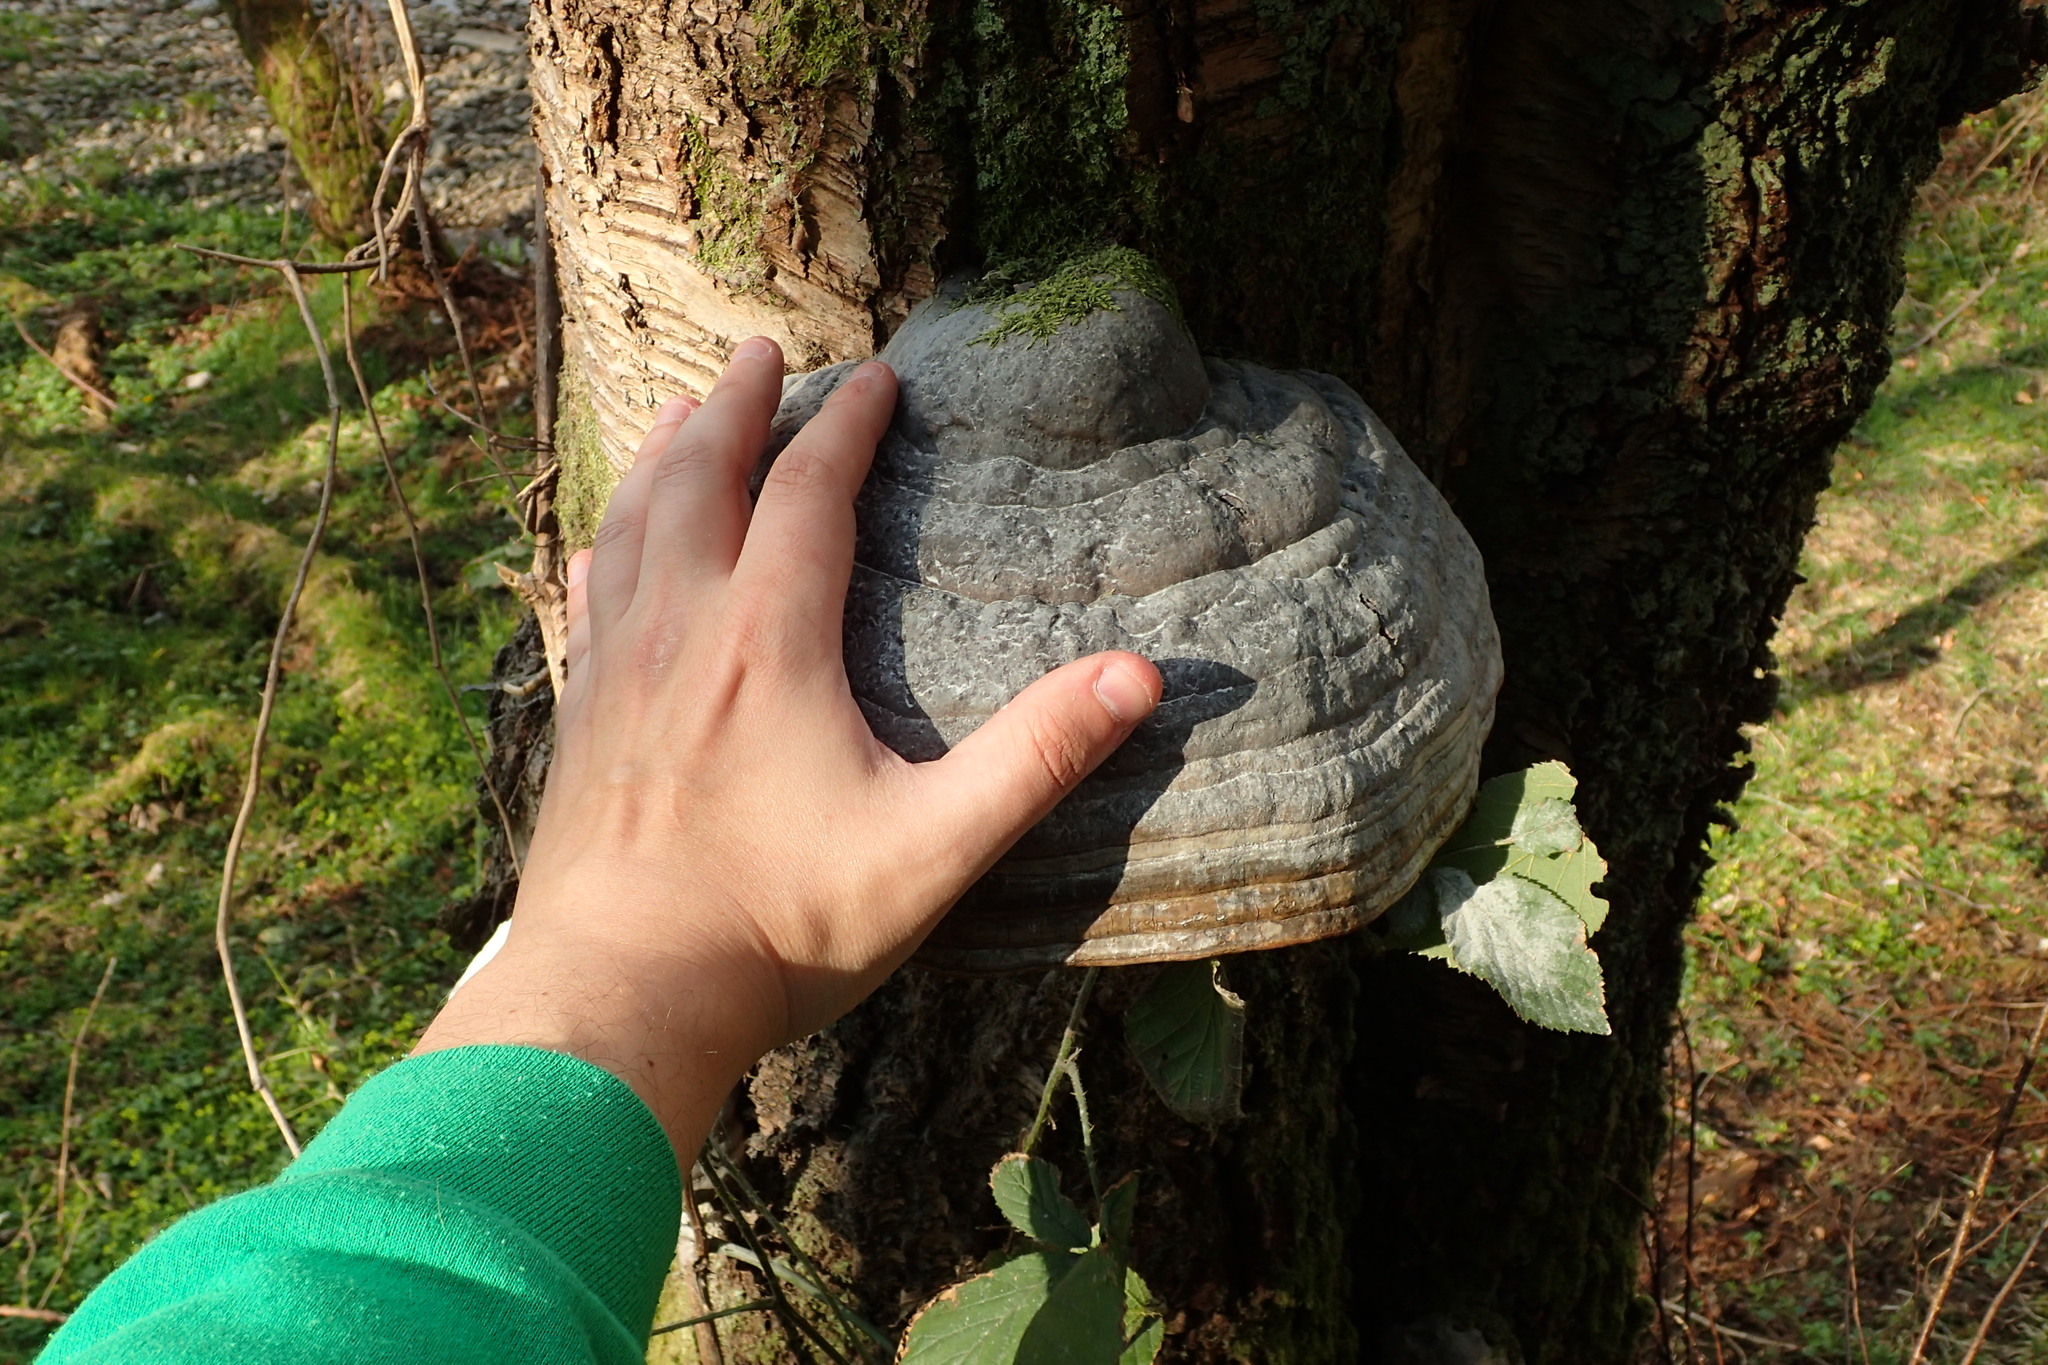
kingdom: Fungi
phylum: Basidiomycota
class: Agaricomycetes
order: Polyporales
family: Polyporaceae
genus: Fomes
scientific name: Fomes fomentarius
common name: Hoof fungus
